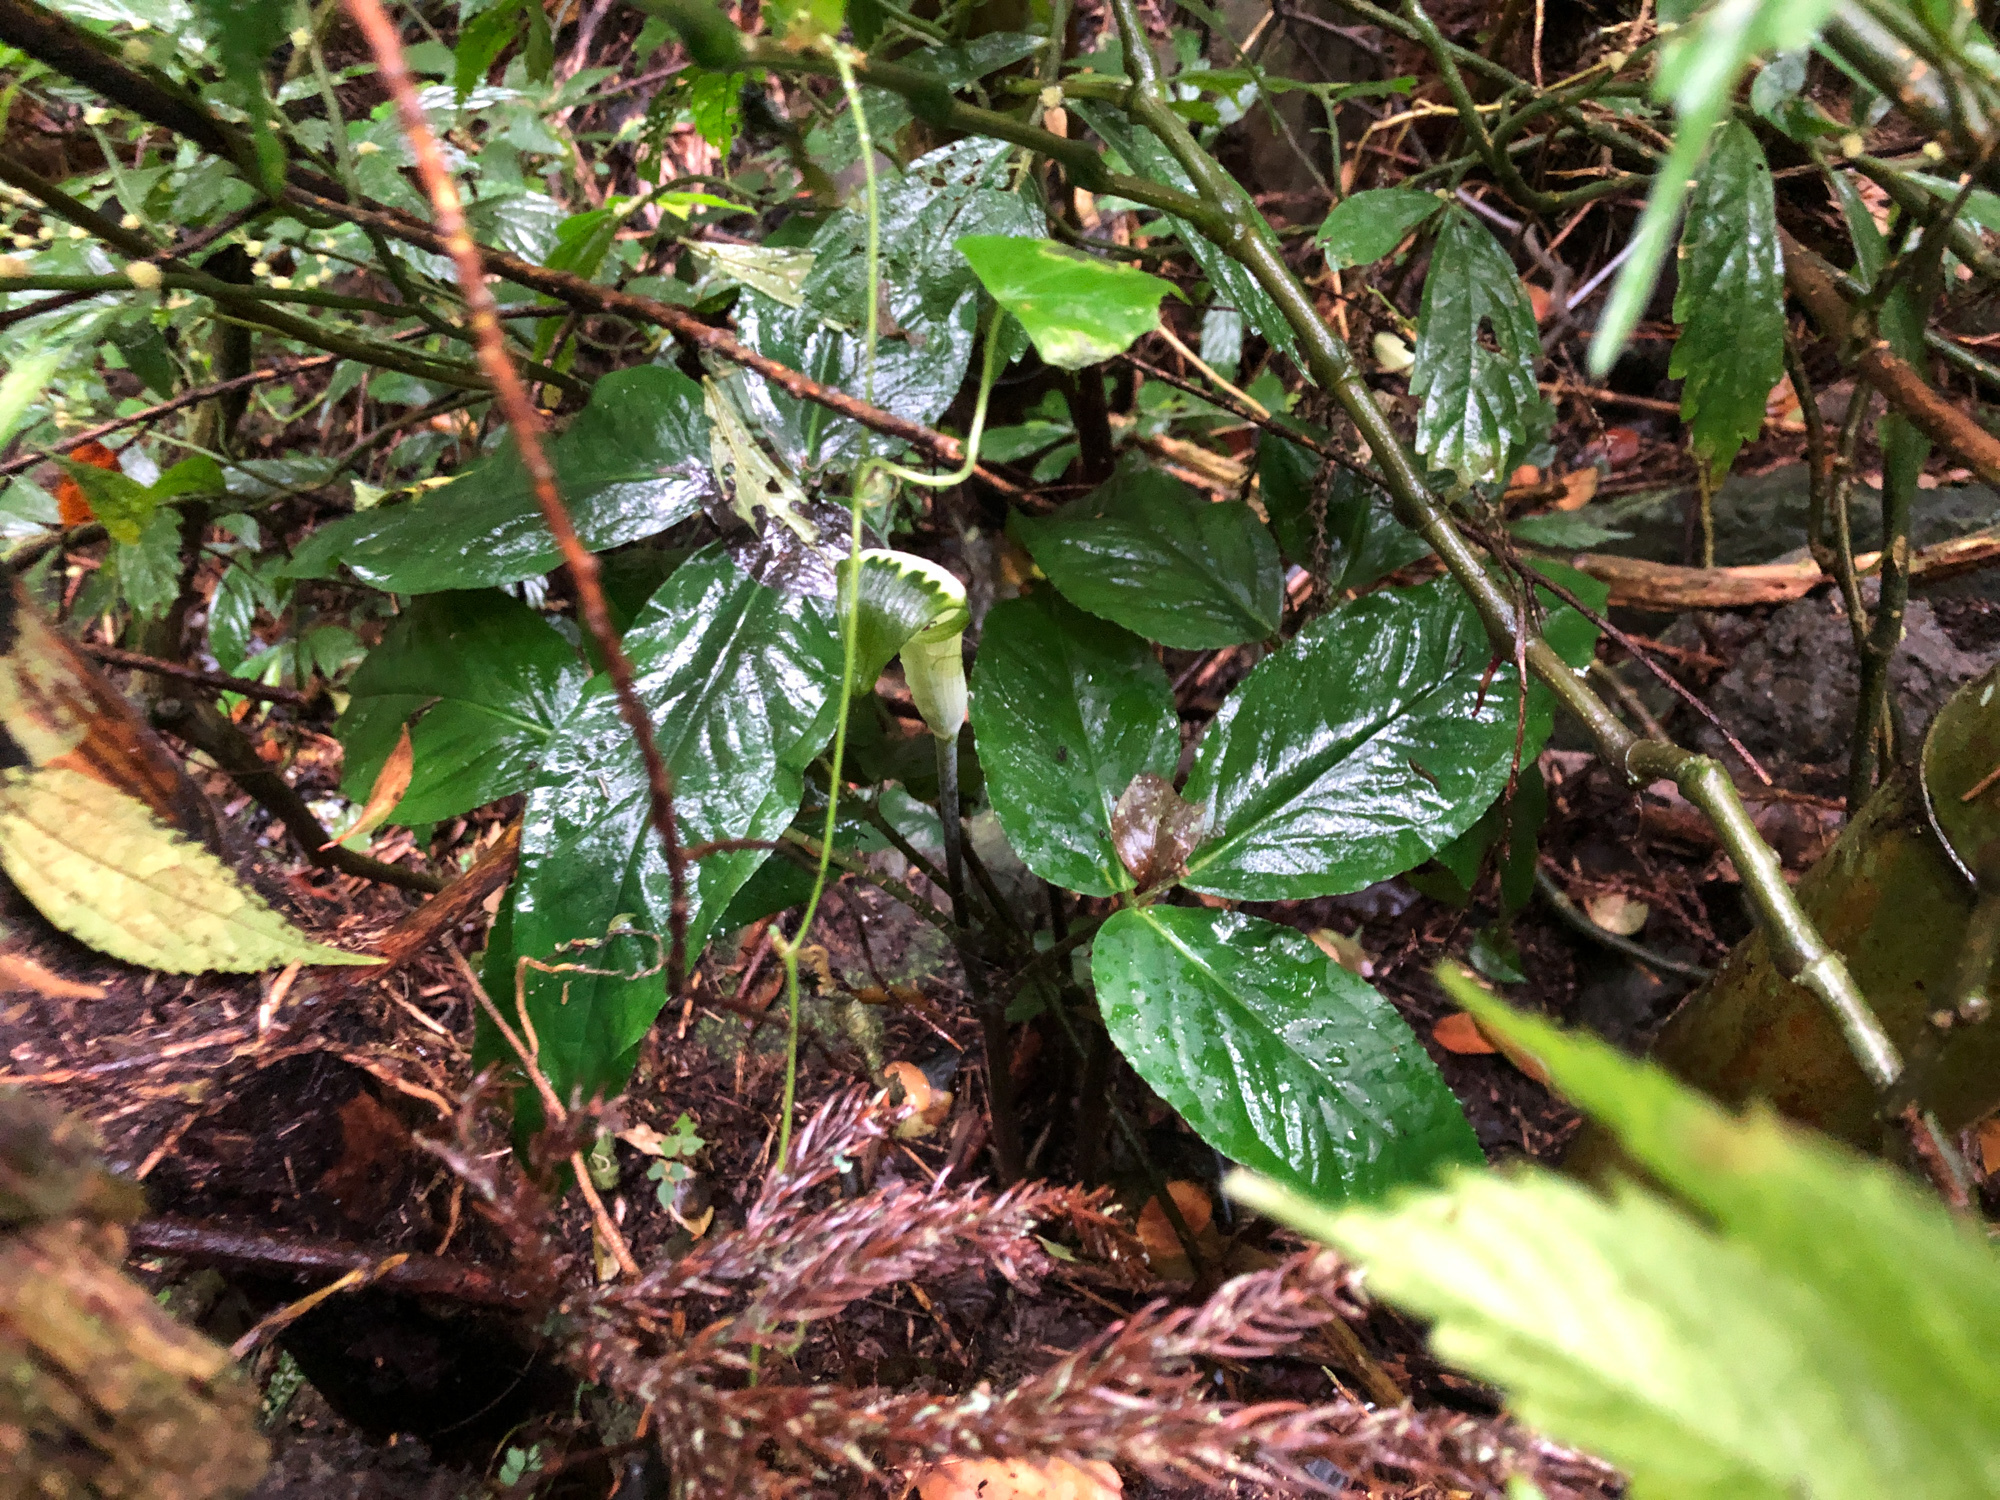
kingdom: Plantae
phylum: Tracheophyta
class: Liliopsida
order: Alismatales
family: Araceae
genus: Arisaema
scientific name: Arisaema penicillatum
